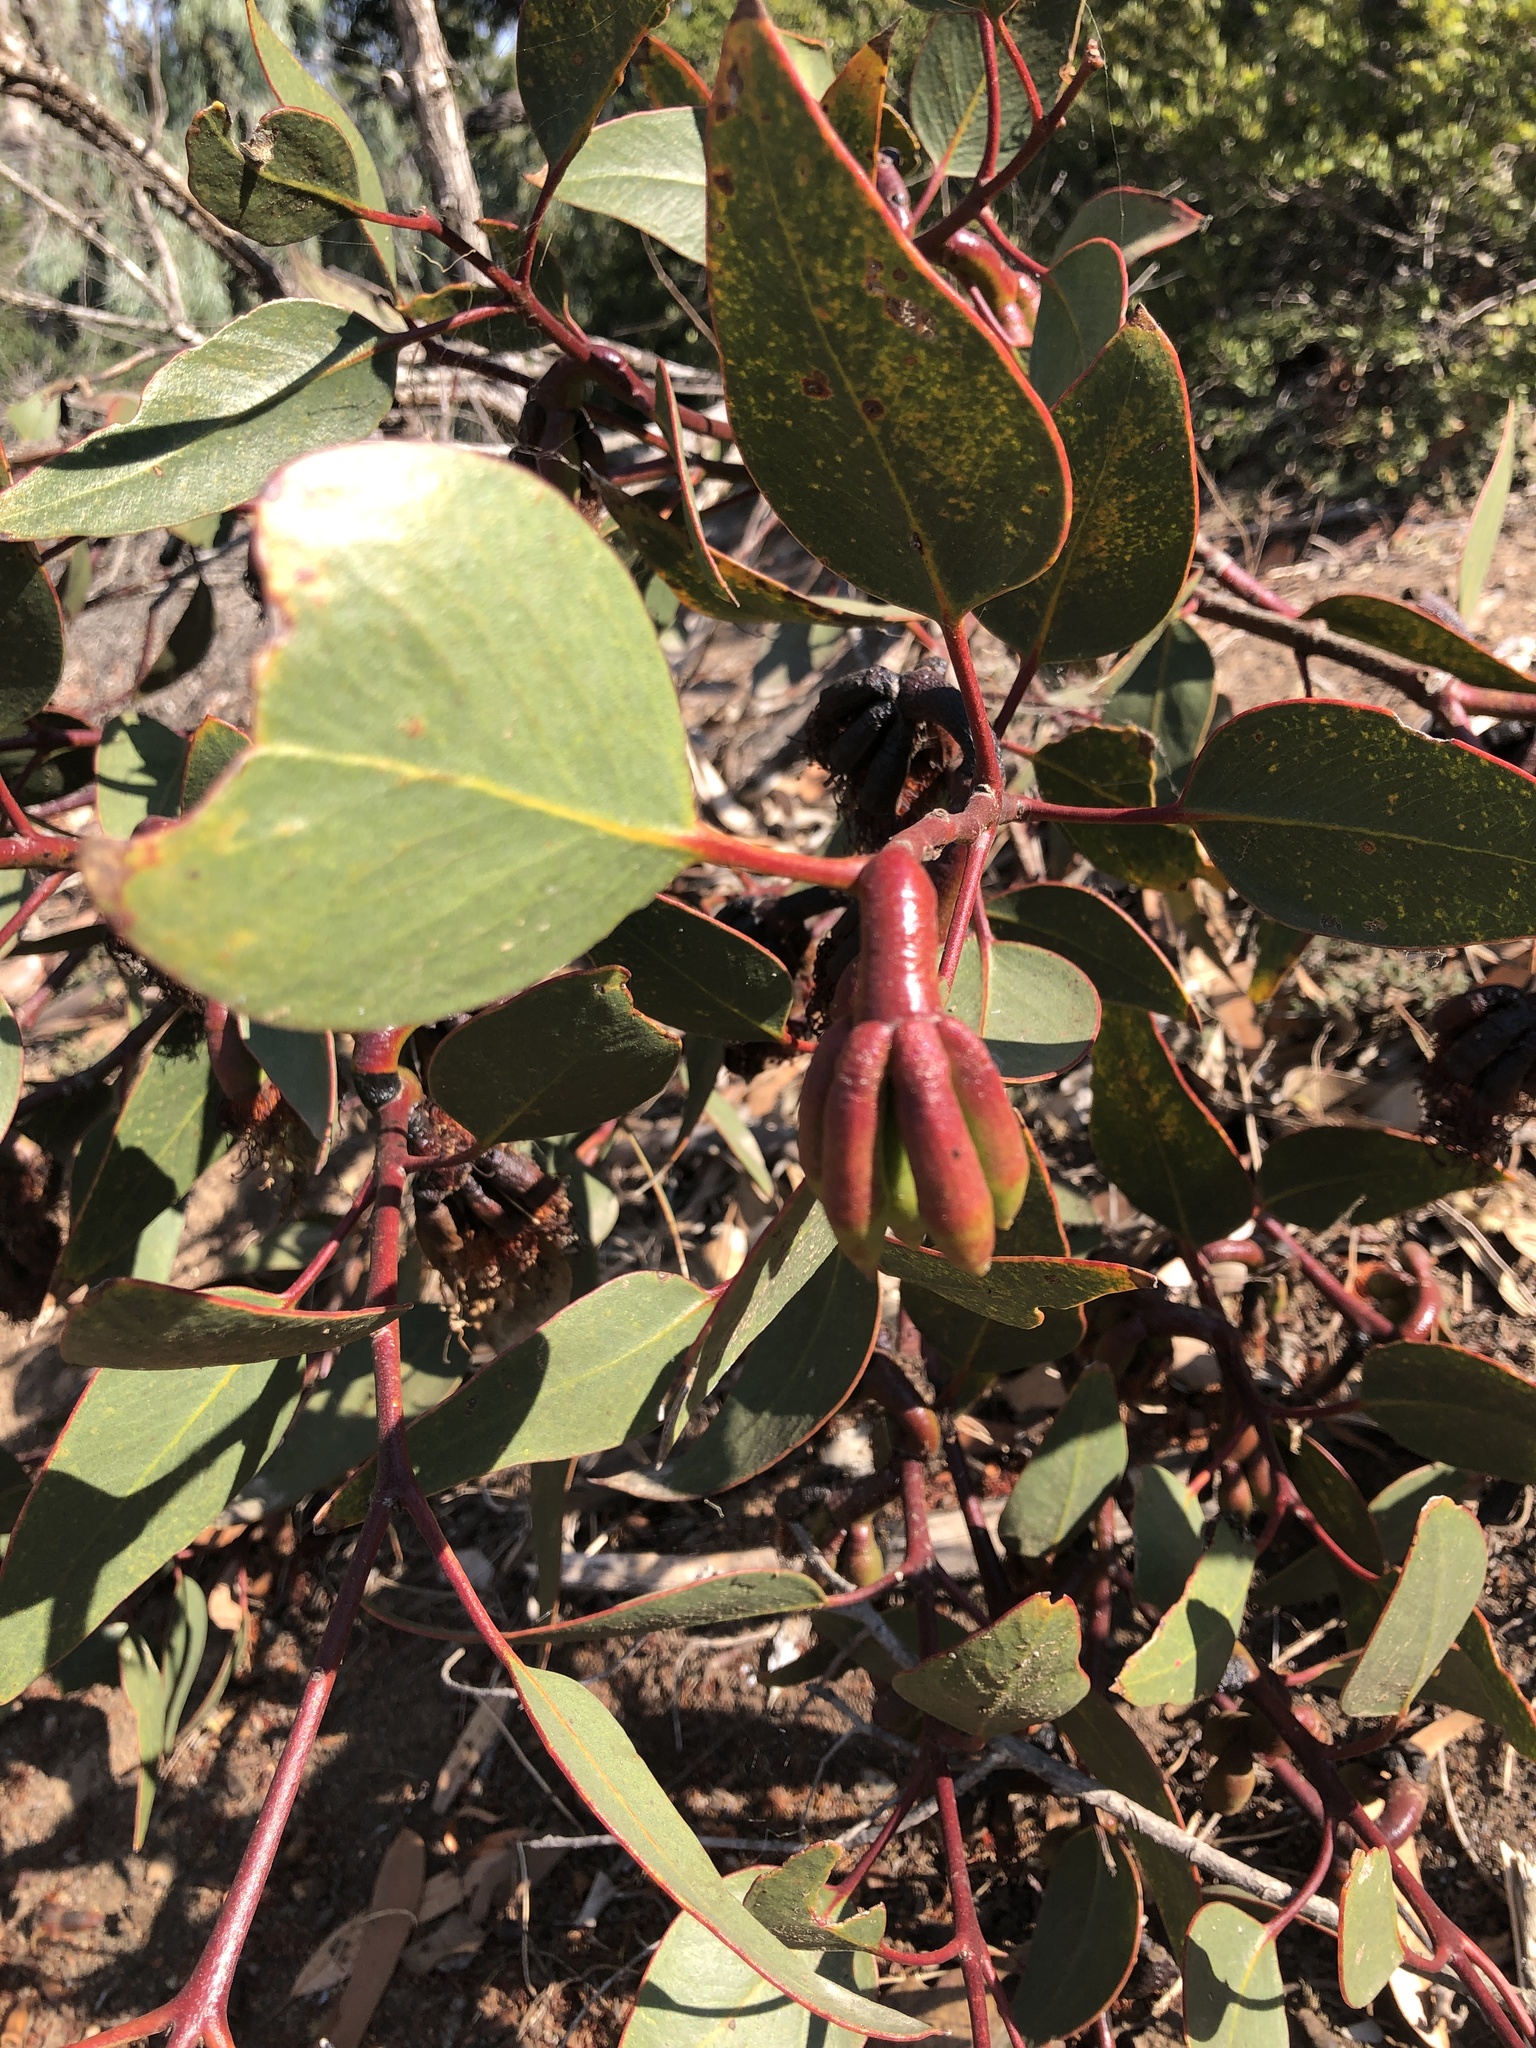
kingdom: Plantae
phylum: Tracheophyta
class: Magnoliopsida
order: Myrtales
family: Myrtaceae
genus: Eucalyptus
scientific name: Eucalyptus grossa
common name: Coarse-leaved mallee
